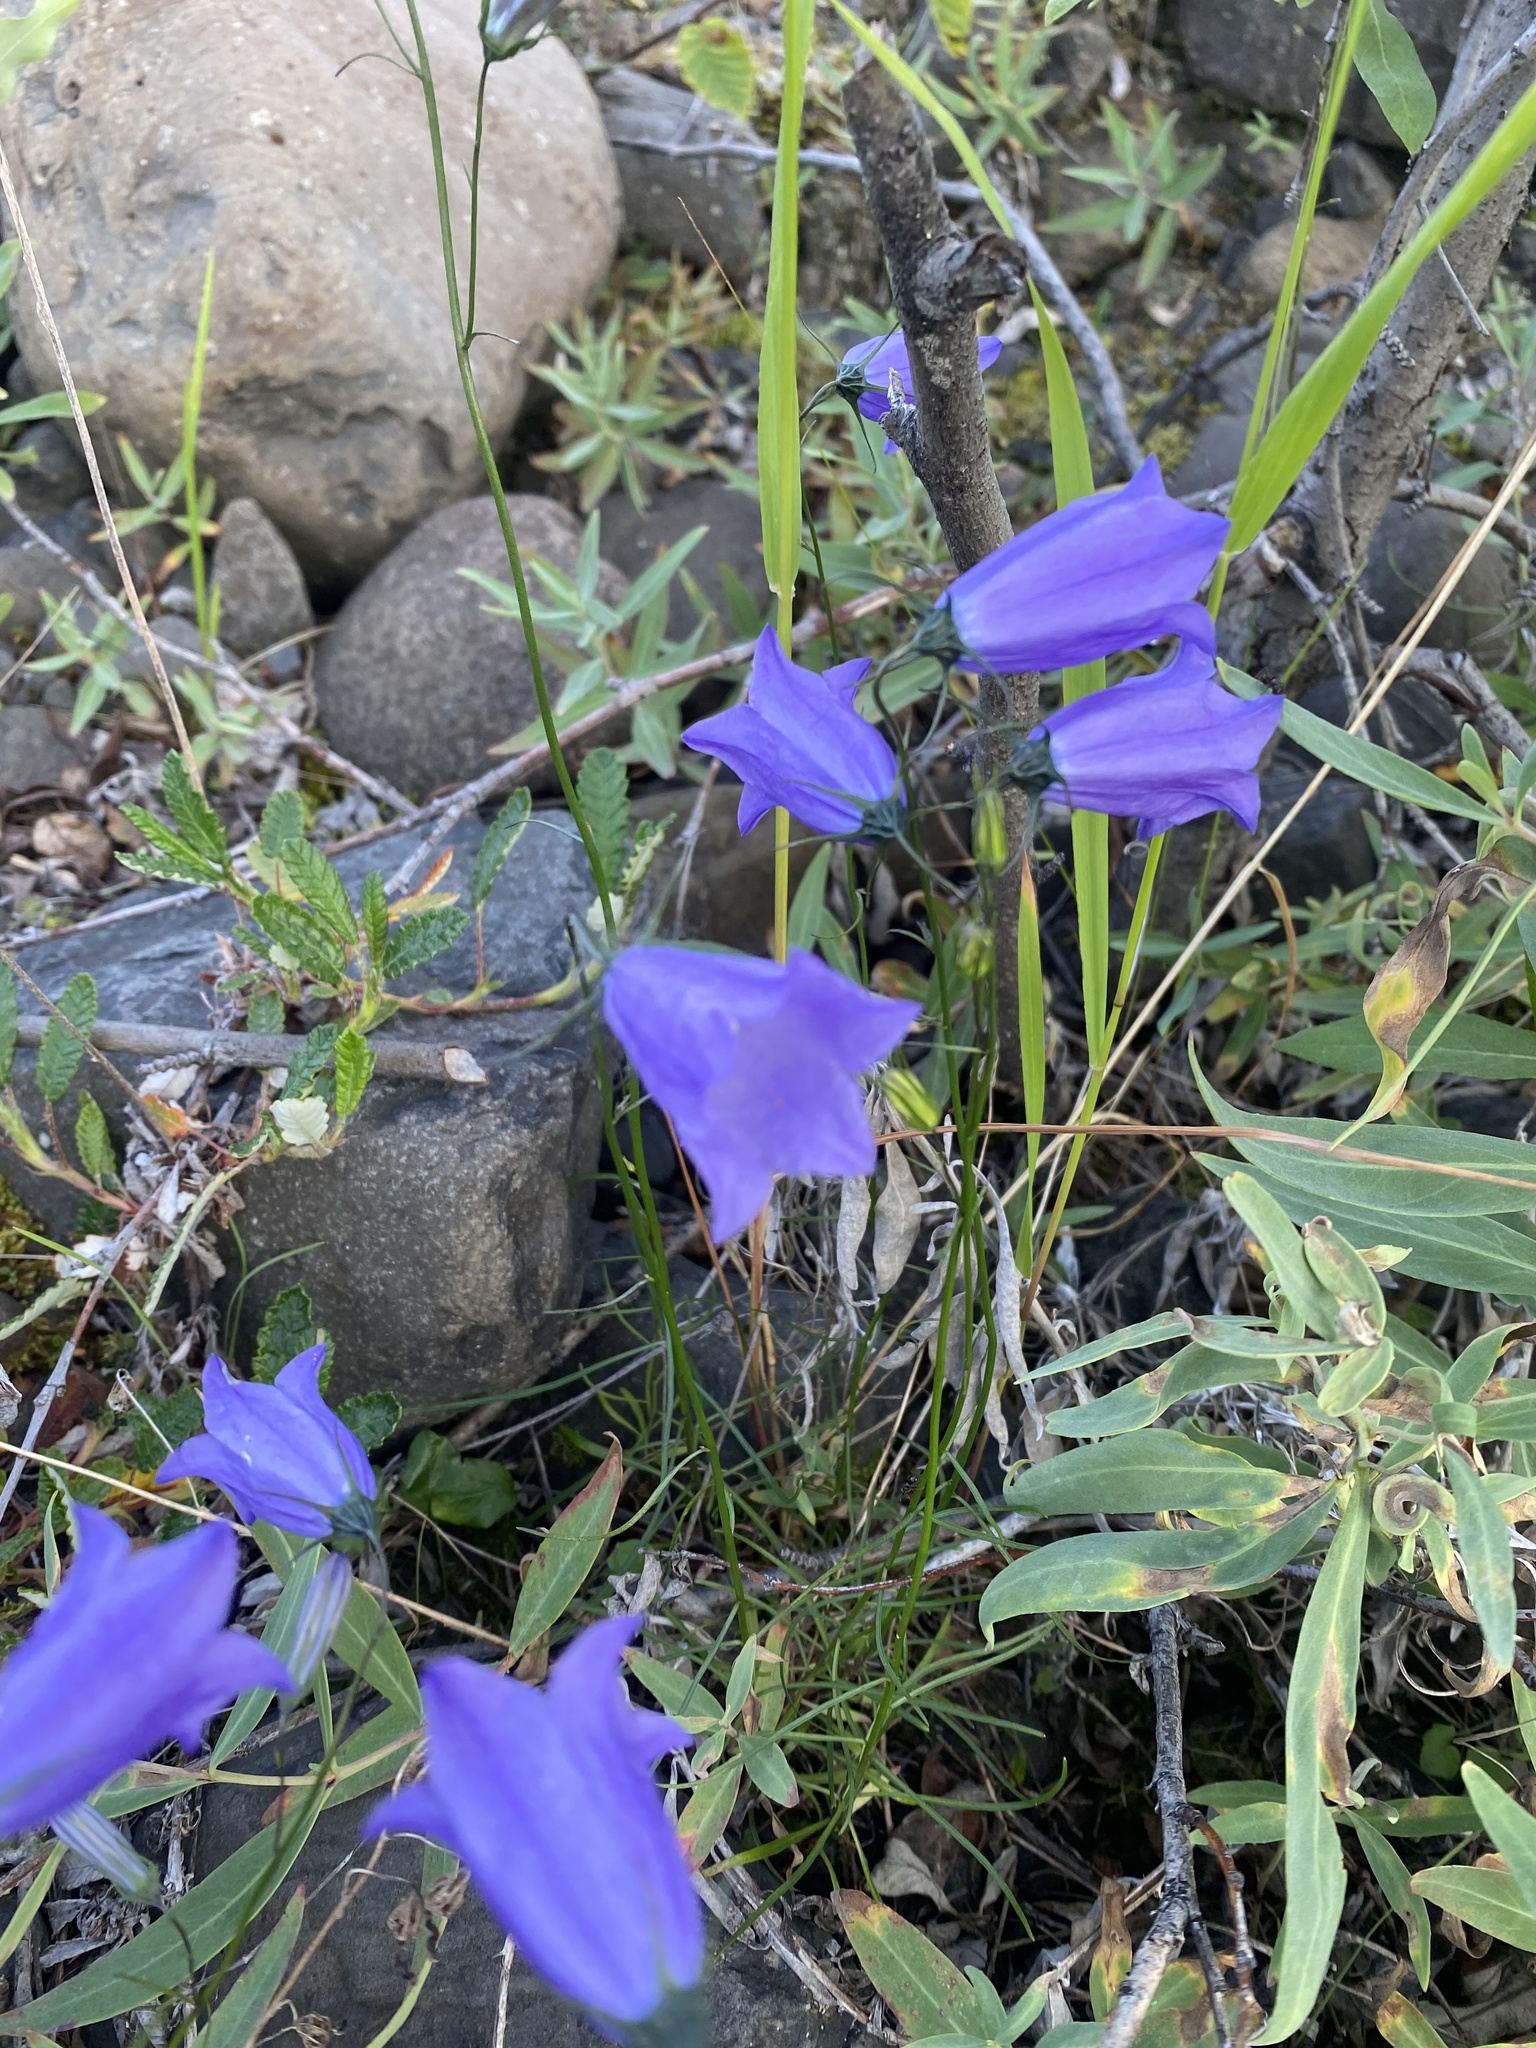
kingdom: Plantae
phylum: Tracheophyta
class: Magnoliopsida
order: Asterales
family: Campanulaceae
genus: Campanula
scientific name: Campanula rotundifolia
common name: Harebell
